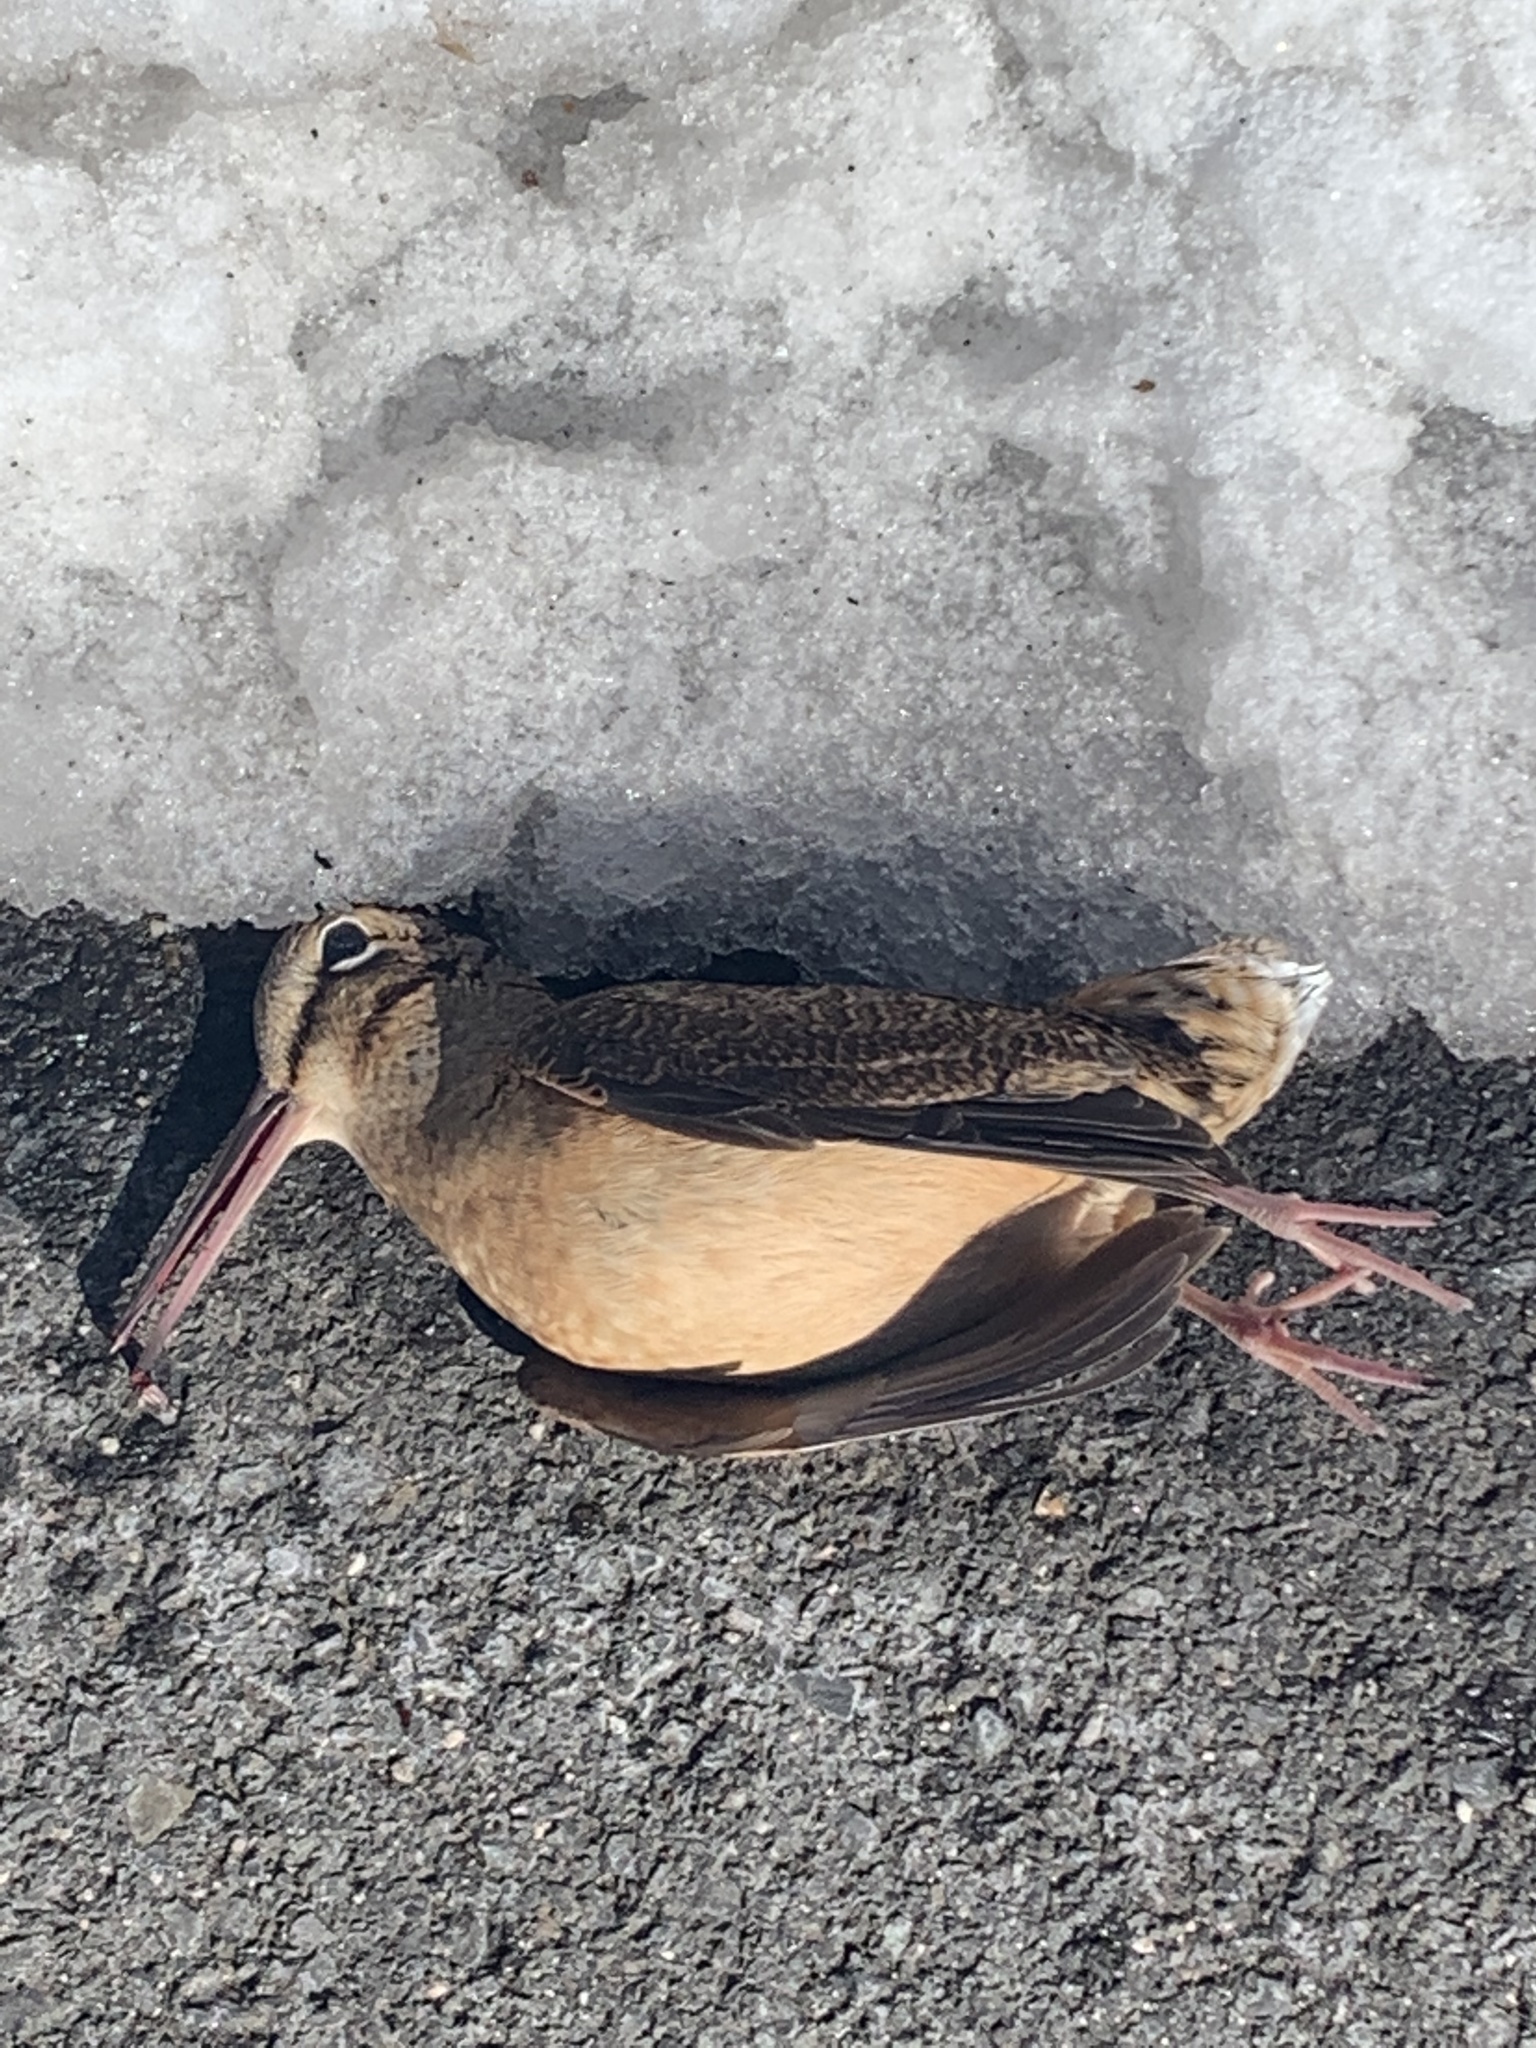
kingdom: Animalia
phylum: Chordata
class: Aves
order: Charadriiformes
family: Scolopacidae
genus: Scolopax
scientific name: Scolopax minor
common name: American woodcock
